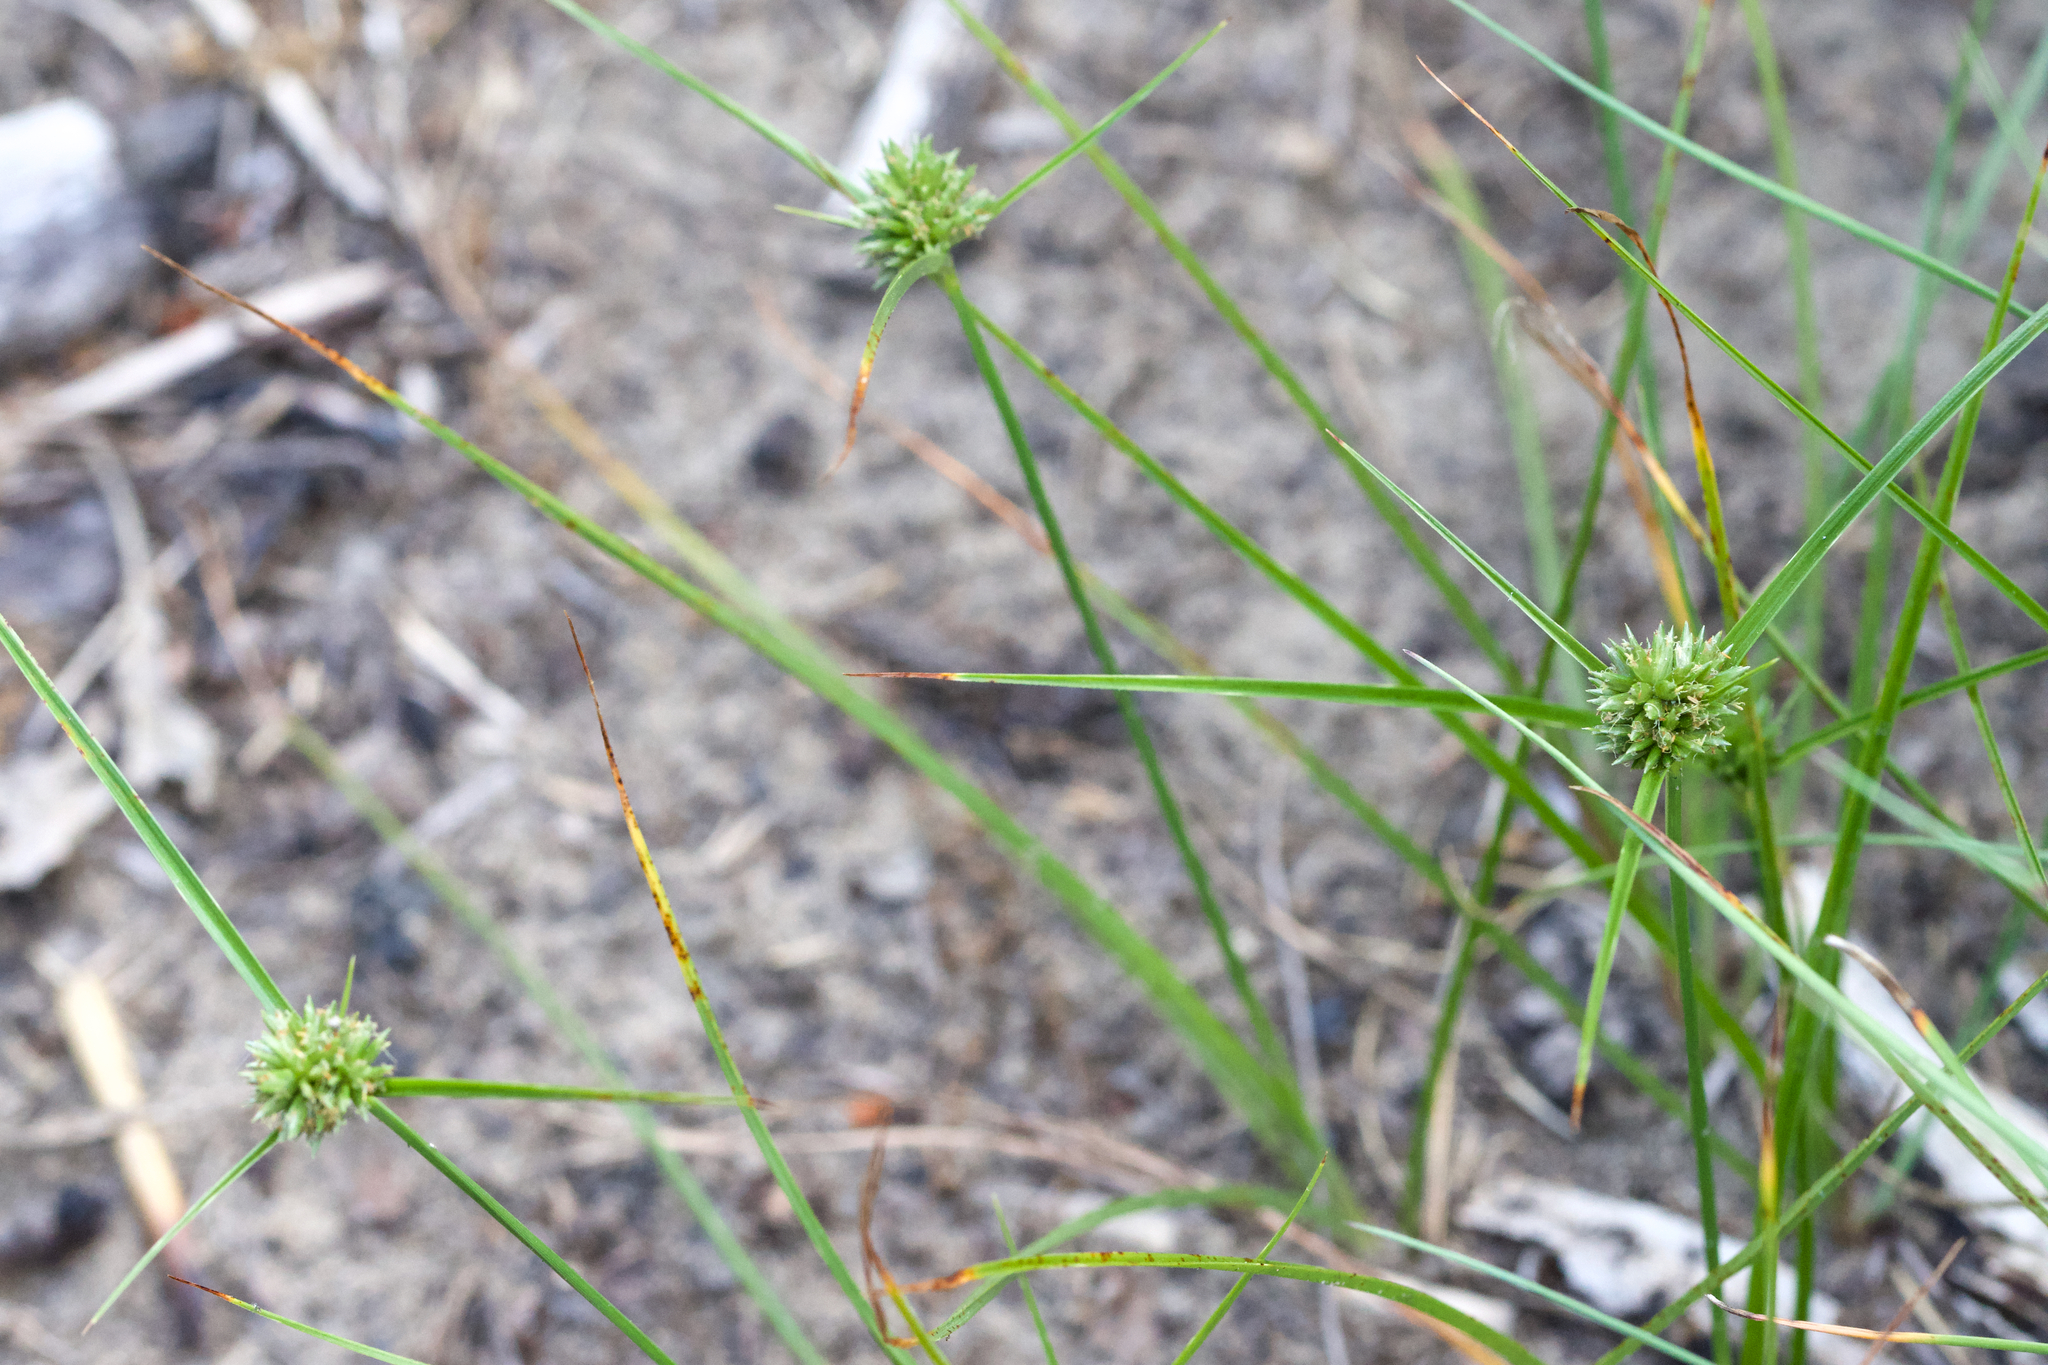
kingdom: Plantae
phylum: Tracheophyta
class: Liliopsida
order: Poales
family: Cyperaceae
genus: Cyperus
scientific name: Cyperus lupulinus
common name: Great plains flatsedge
